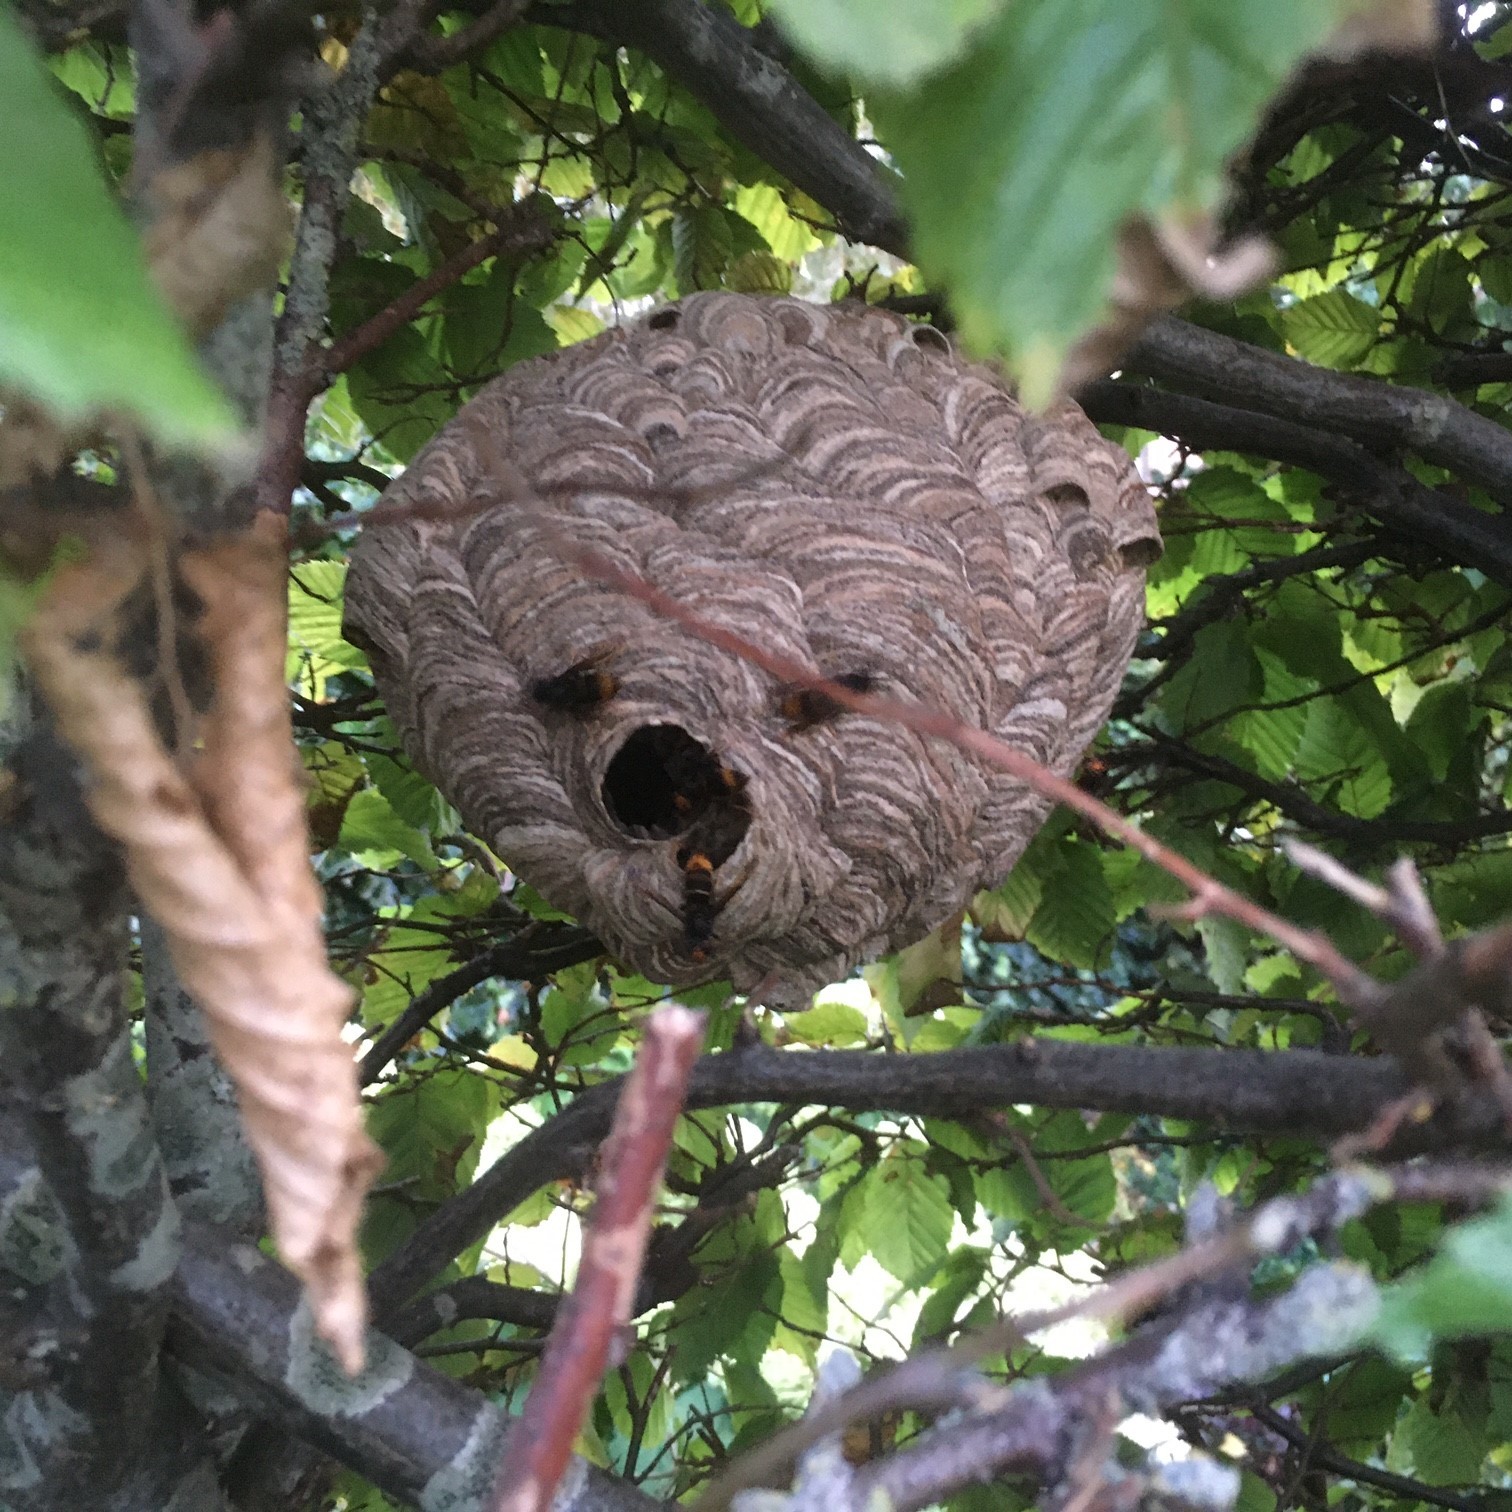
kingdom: Animalia
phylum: Arthropoda
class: Insecta
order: Hymenoptera
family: Vespidae
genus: Vespa
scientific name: Vespa velutina
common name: Asian hornet
